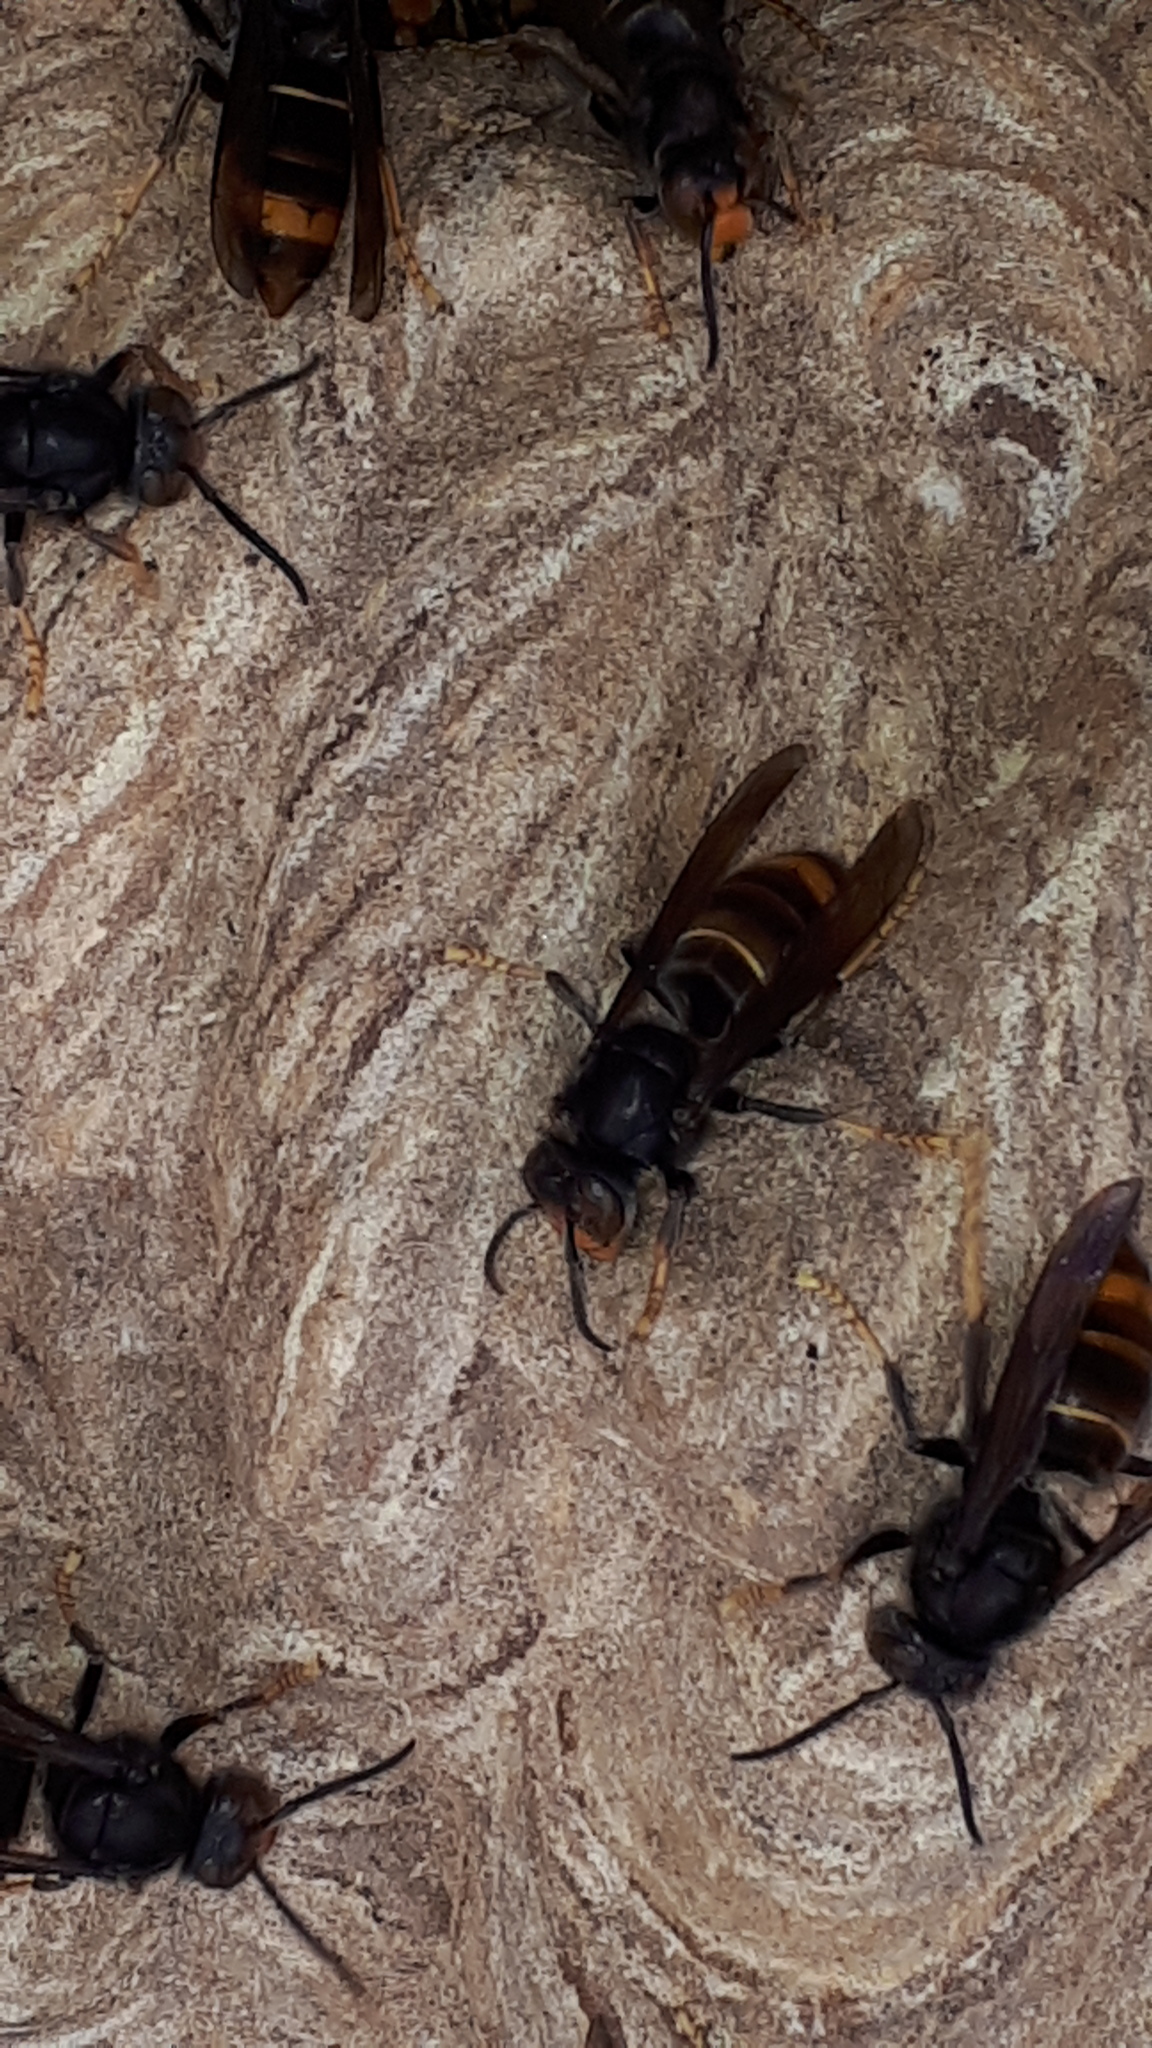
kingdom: Animalia
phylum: Arthropoda
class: Insecta
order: Hymenoptera
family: Vespidae
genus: Vespa
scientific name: Vespa velutina
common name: Asian hornet
